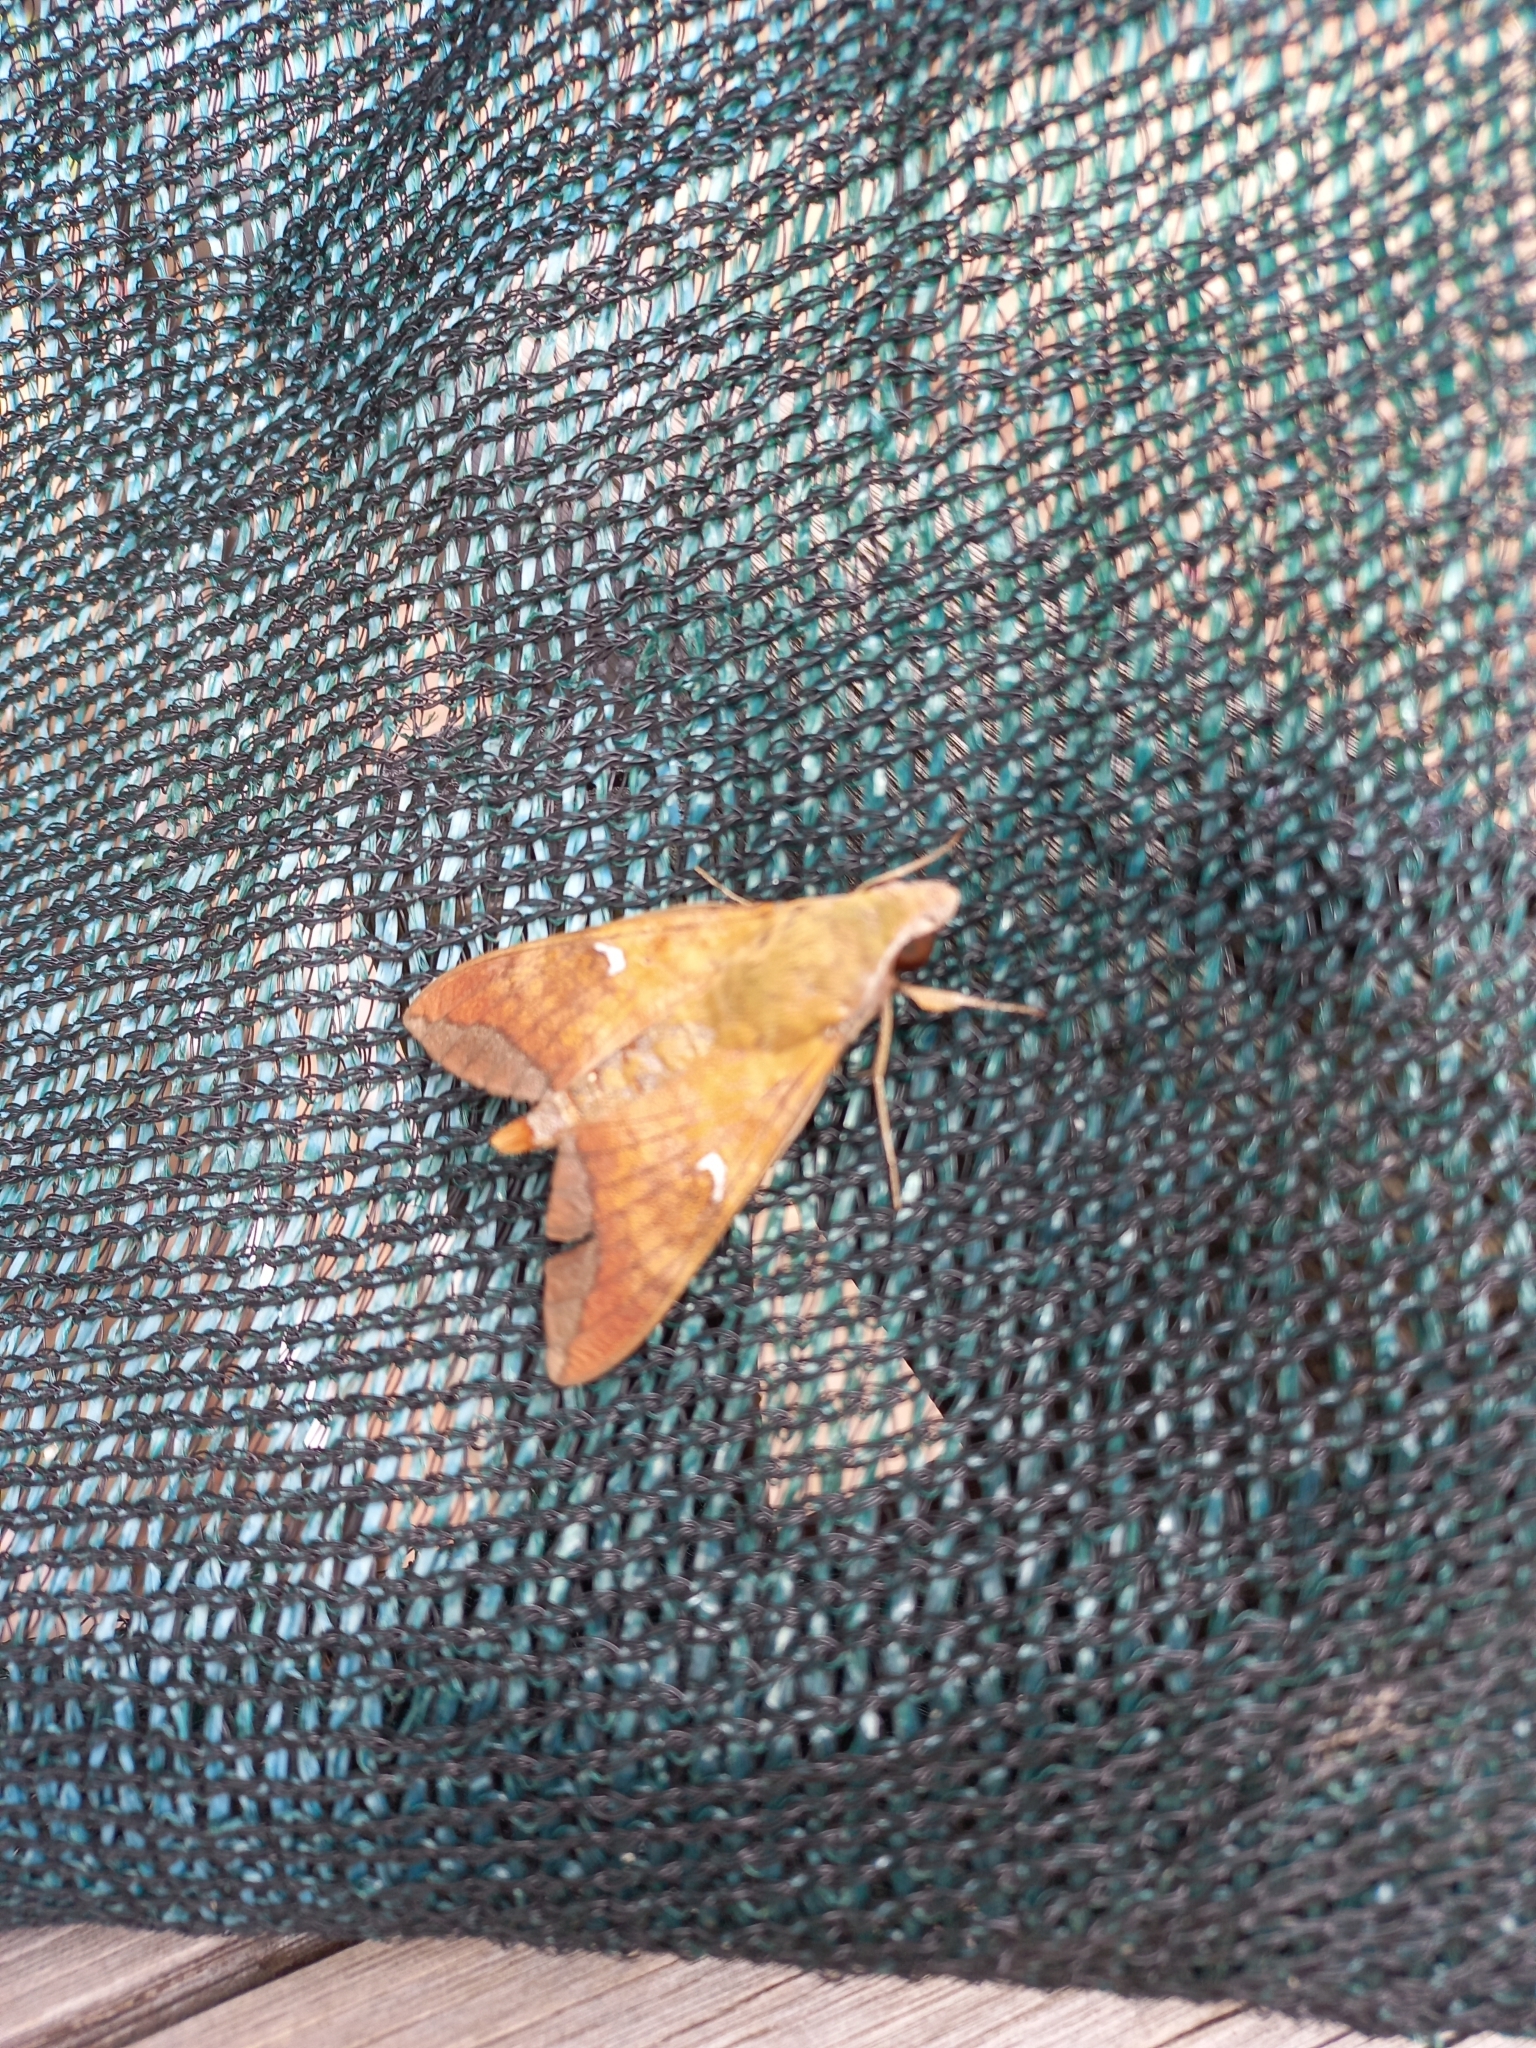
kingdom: Animalia
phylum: Arthropoda
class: Insecta
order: Lepidoptera
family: Sphingidae
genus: Nephele
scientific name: Nephele comma
